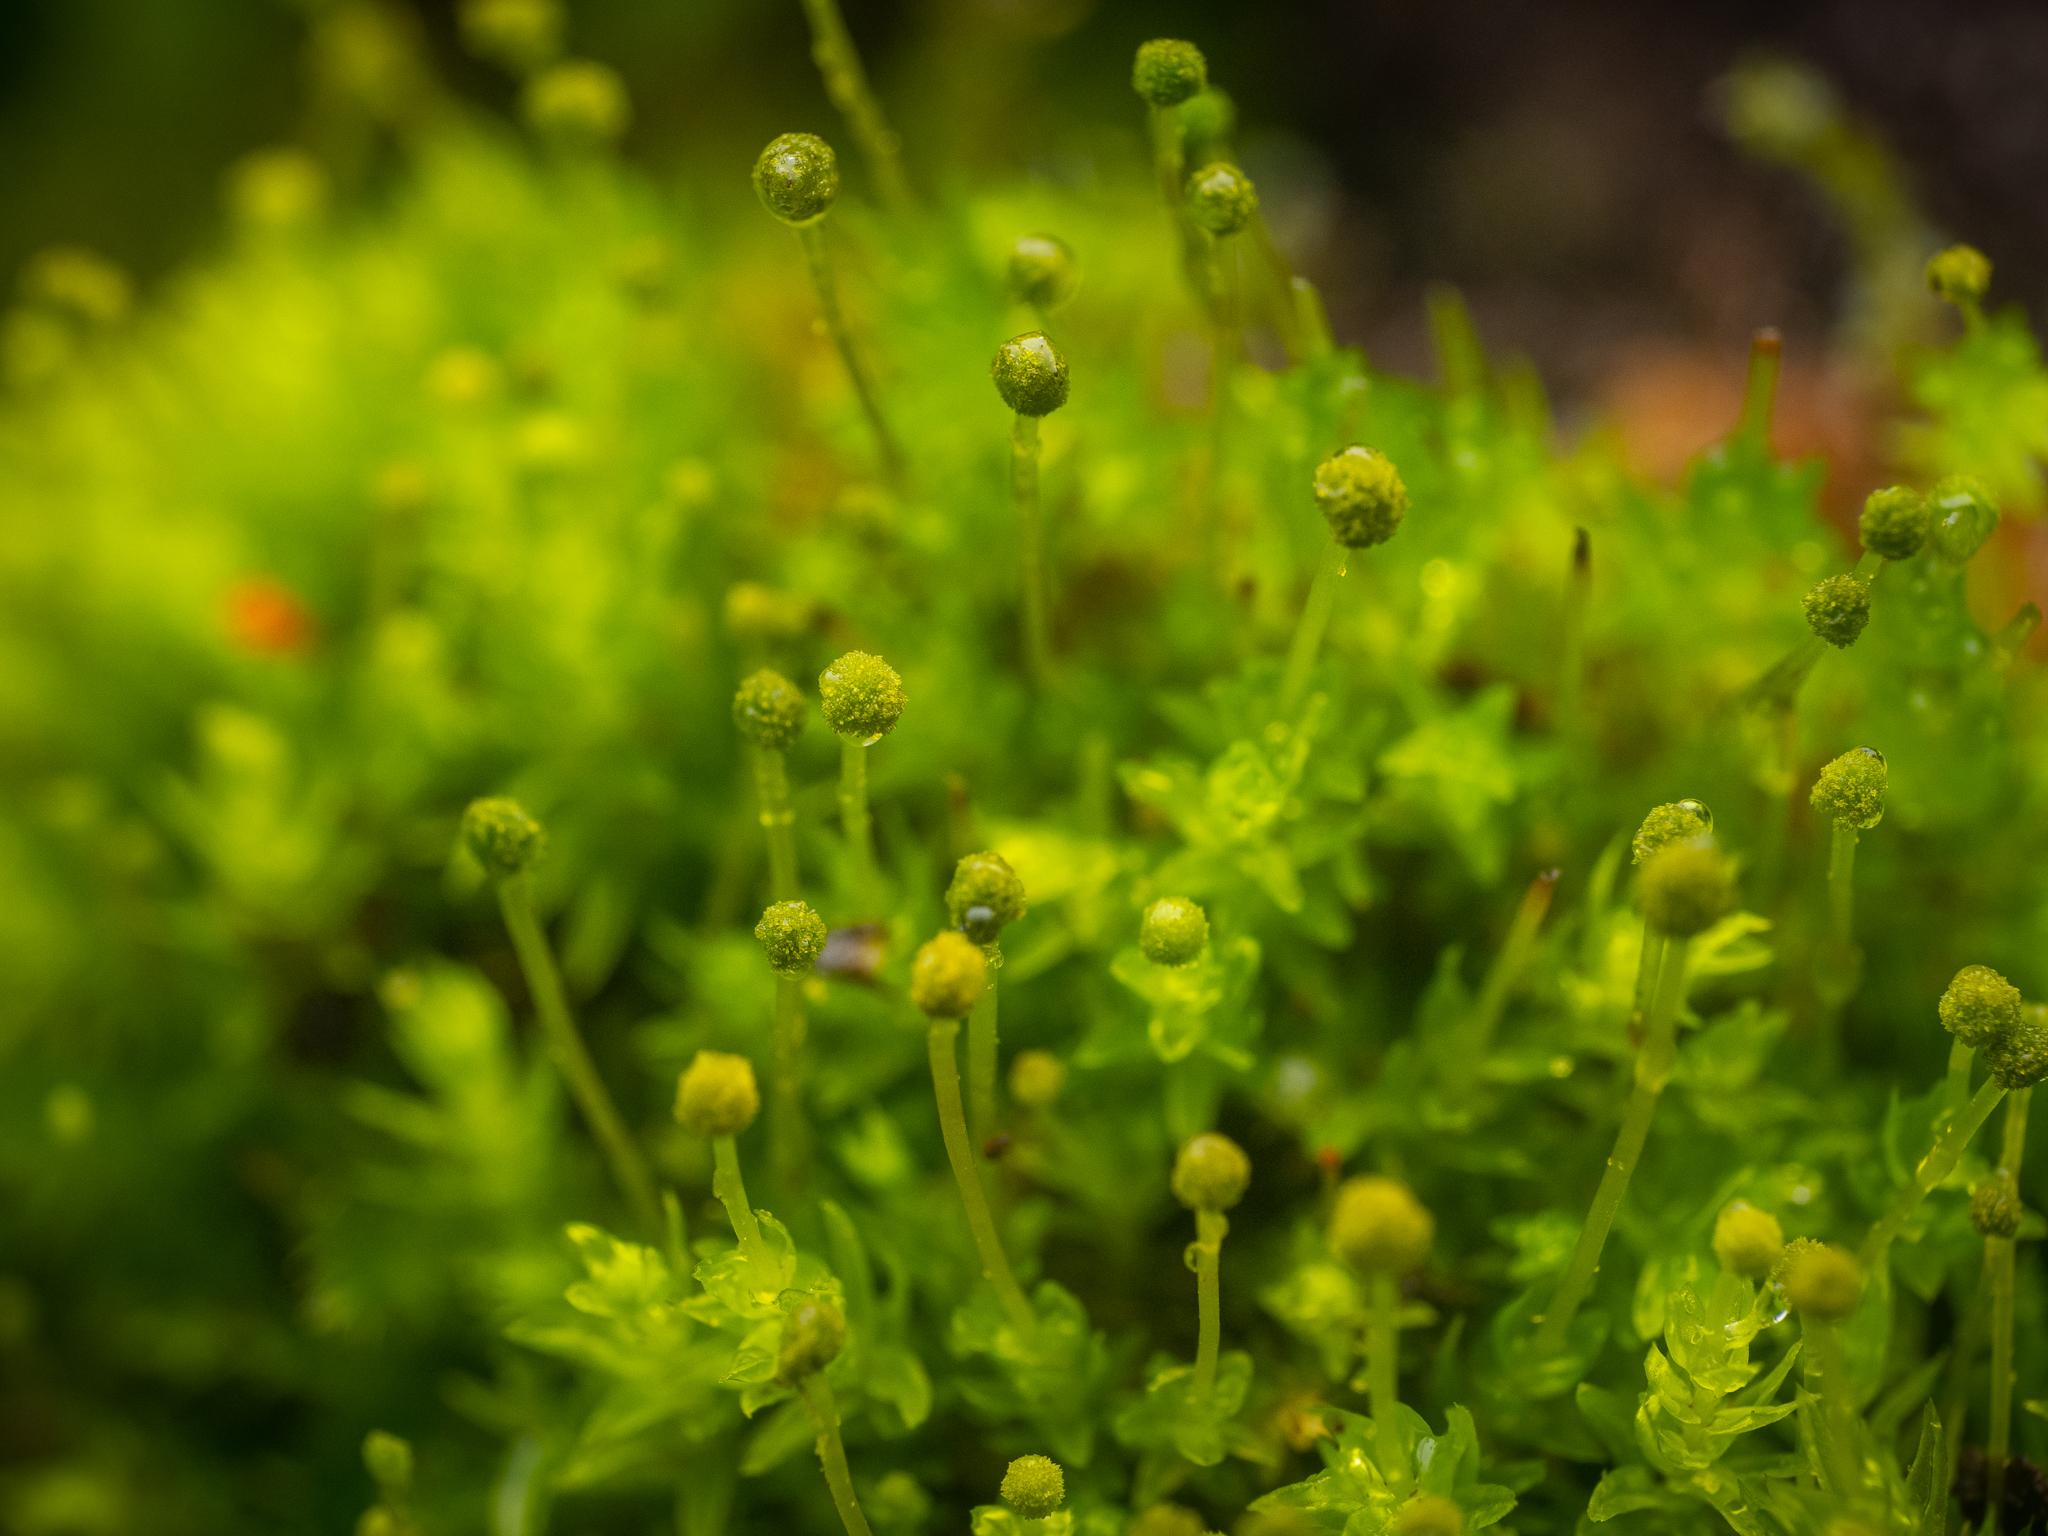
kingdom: Plantae
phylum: Bryophyta
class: Bryopsida
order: Aulacomniales
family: Aulacomniaceae
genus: Aulacomnium
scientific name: Aulacomnium androgynum
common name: Little groove moss
